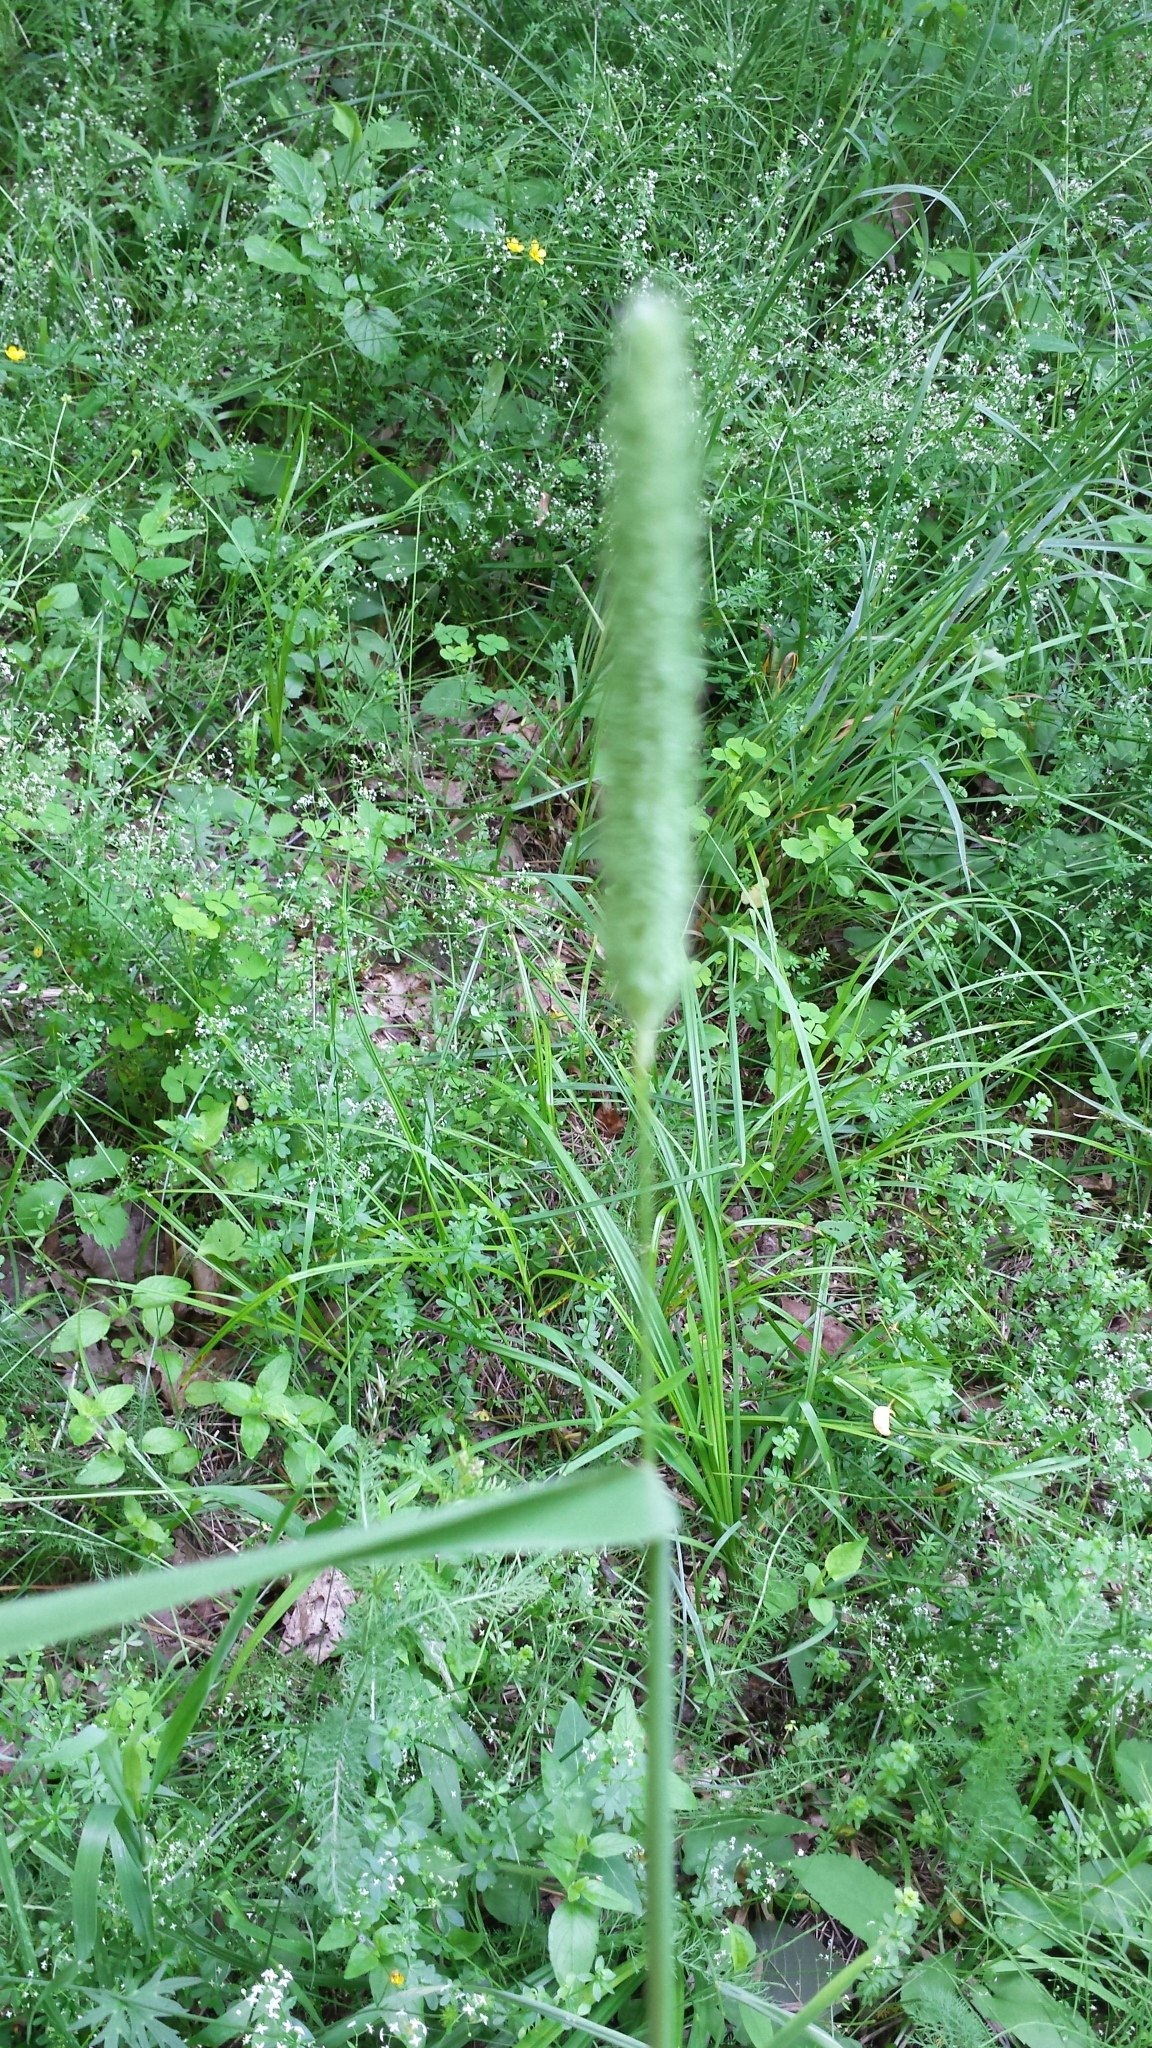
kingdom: Plantae
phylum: Tracheophyta
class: Liliopsida
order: Poales
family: Poaceae
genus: Phleum
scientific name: Phleum pratense
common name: Timothy grass
